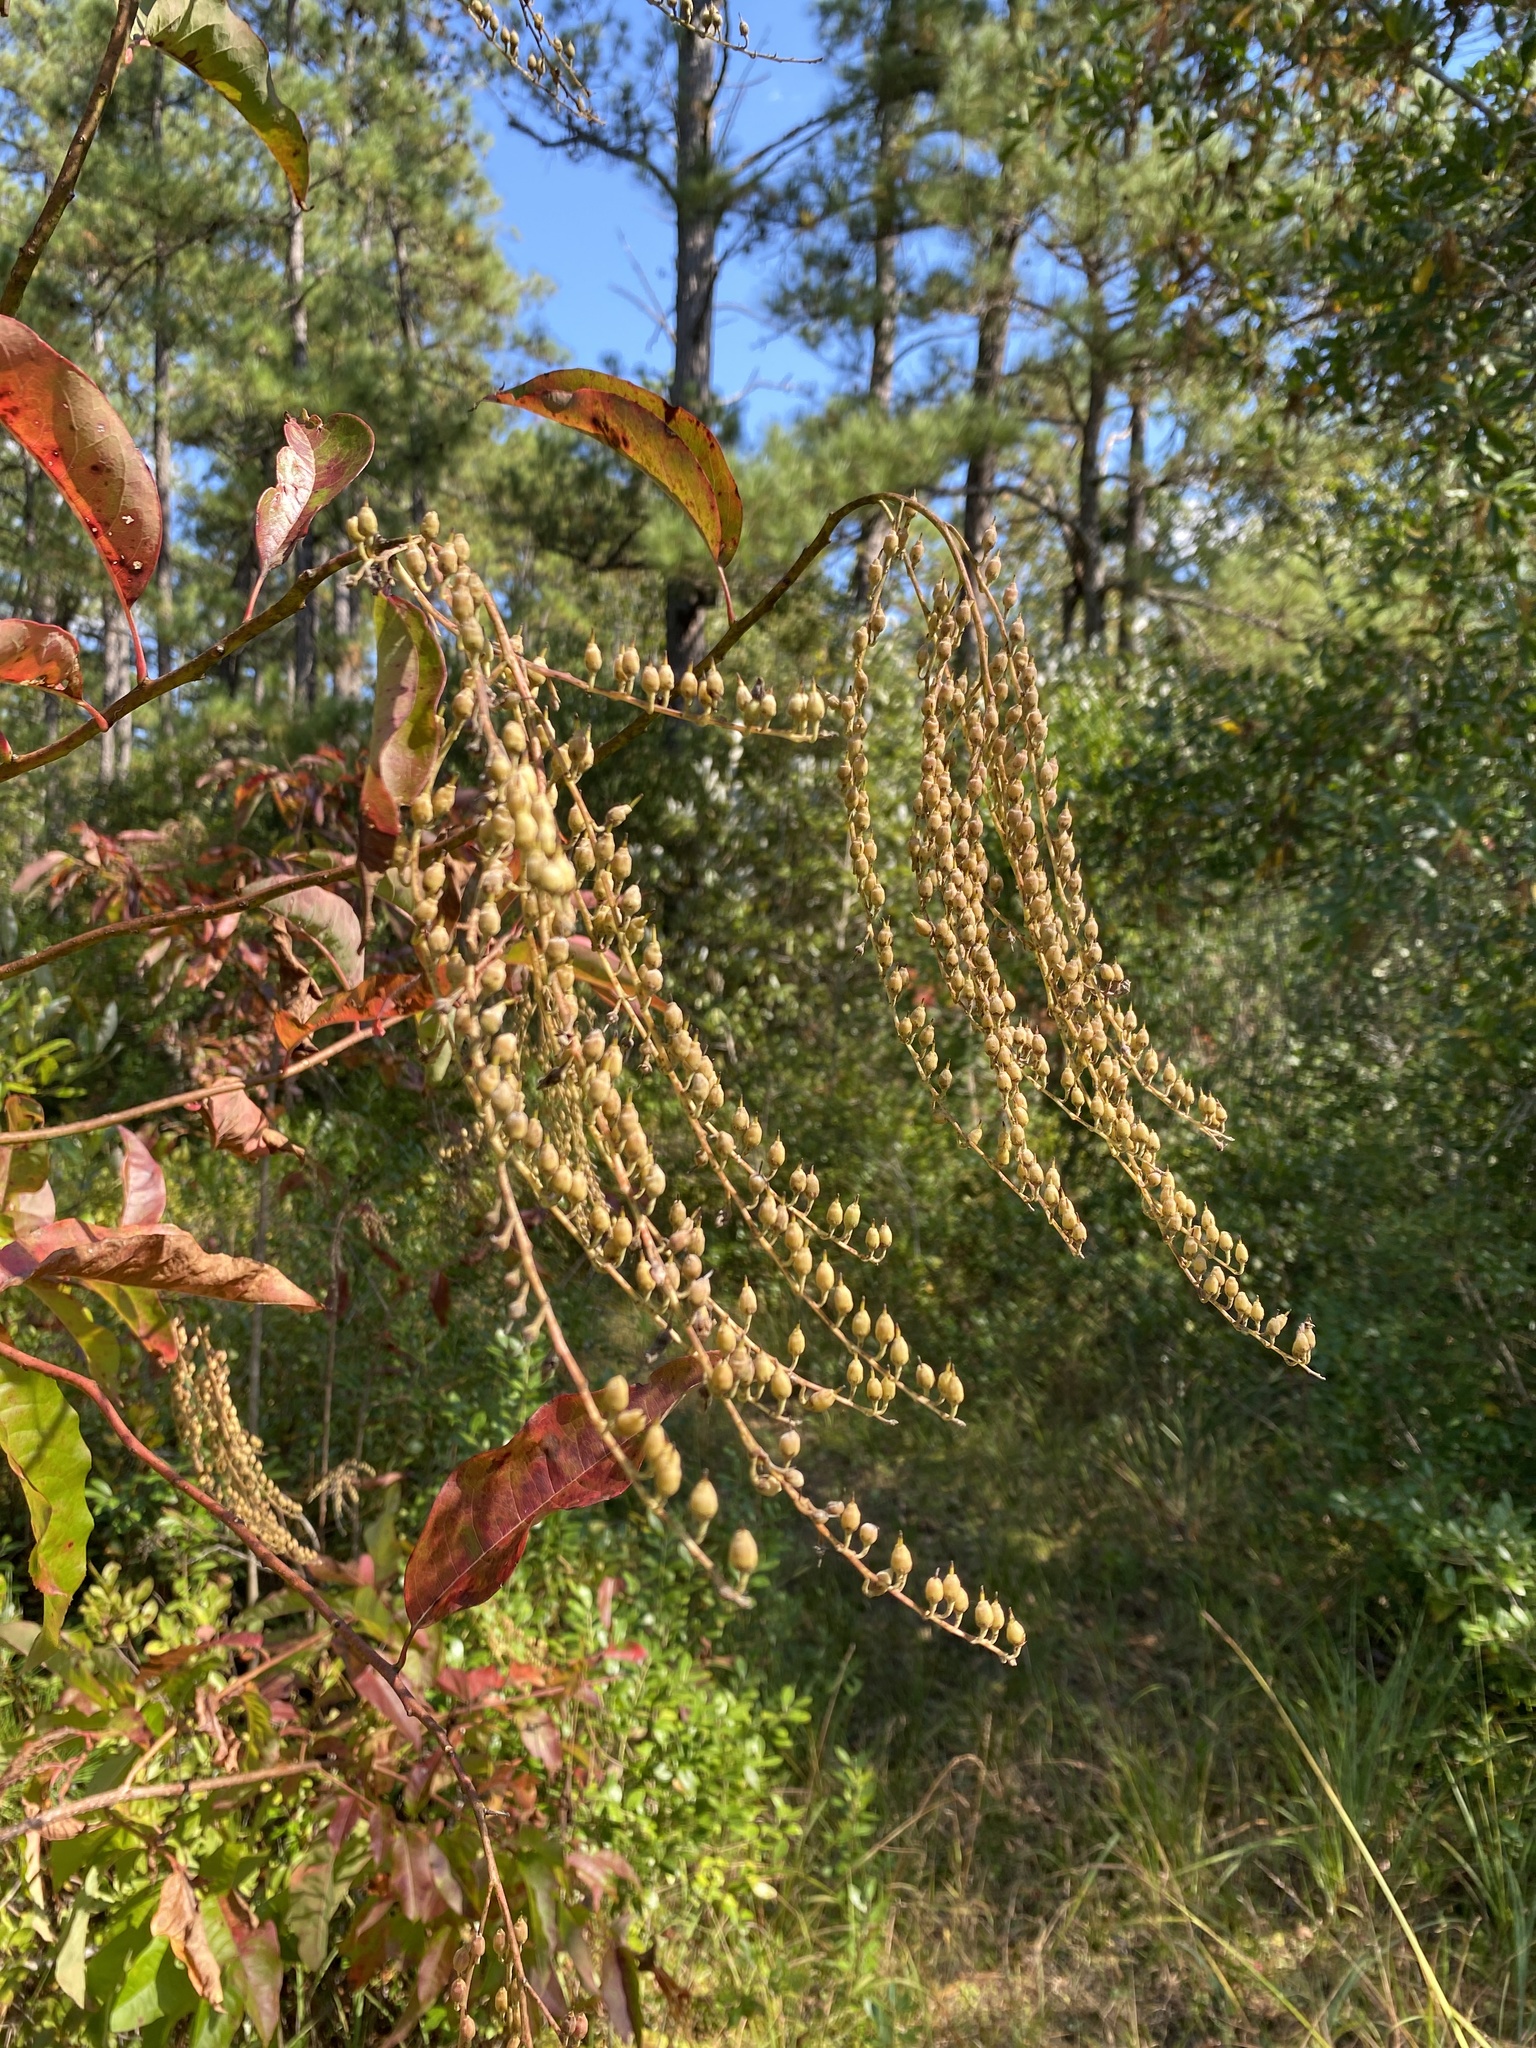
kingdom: Plantae
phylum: Tracheophyta
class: Magnoliopsida
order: Ericales
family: Ericaceae
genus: Oxydendrum
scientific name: Oxydendrum arboreum
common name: Sourwood
